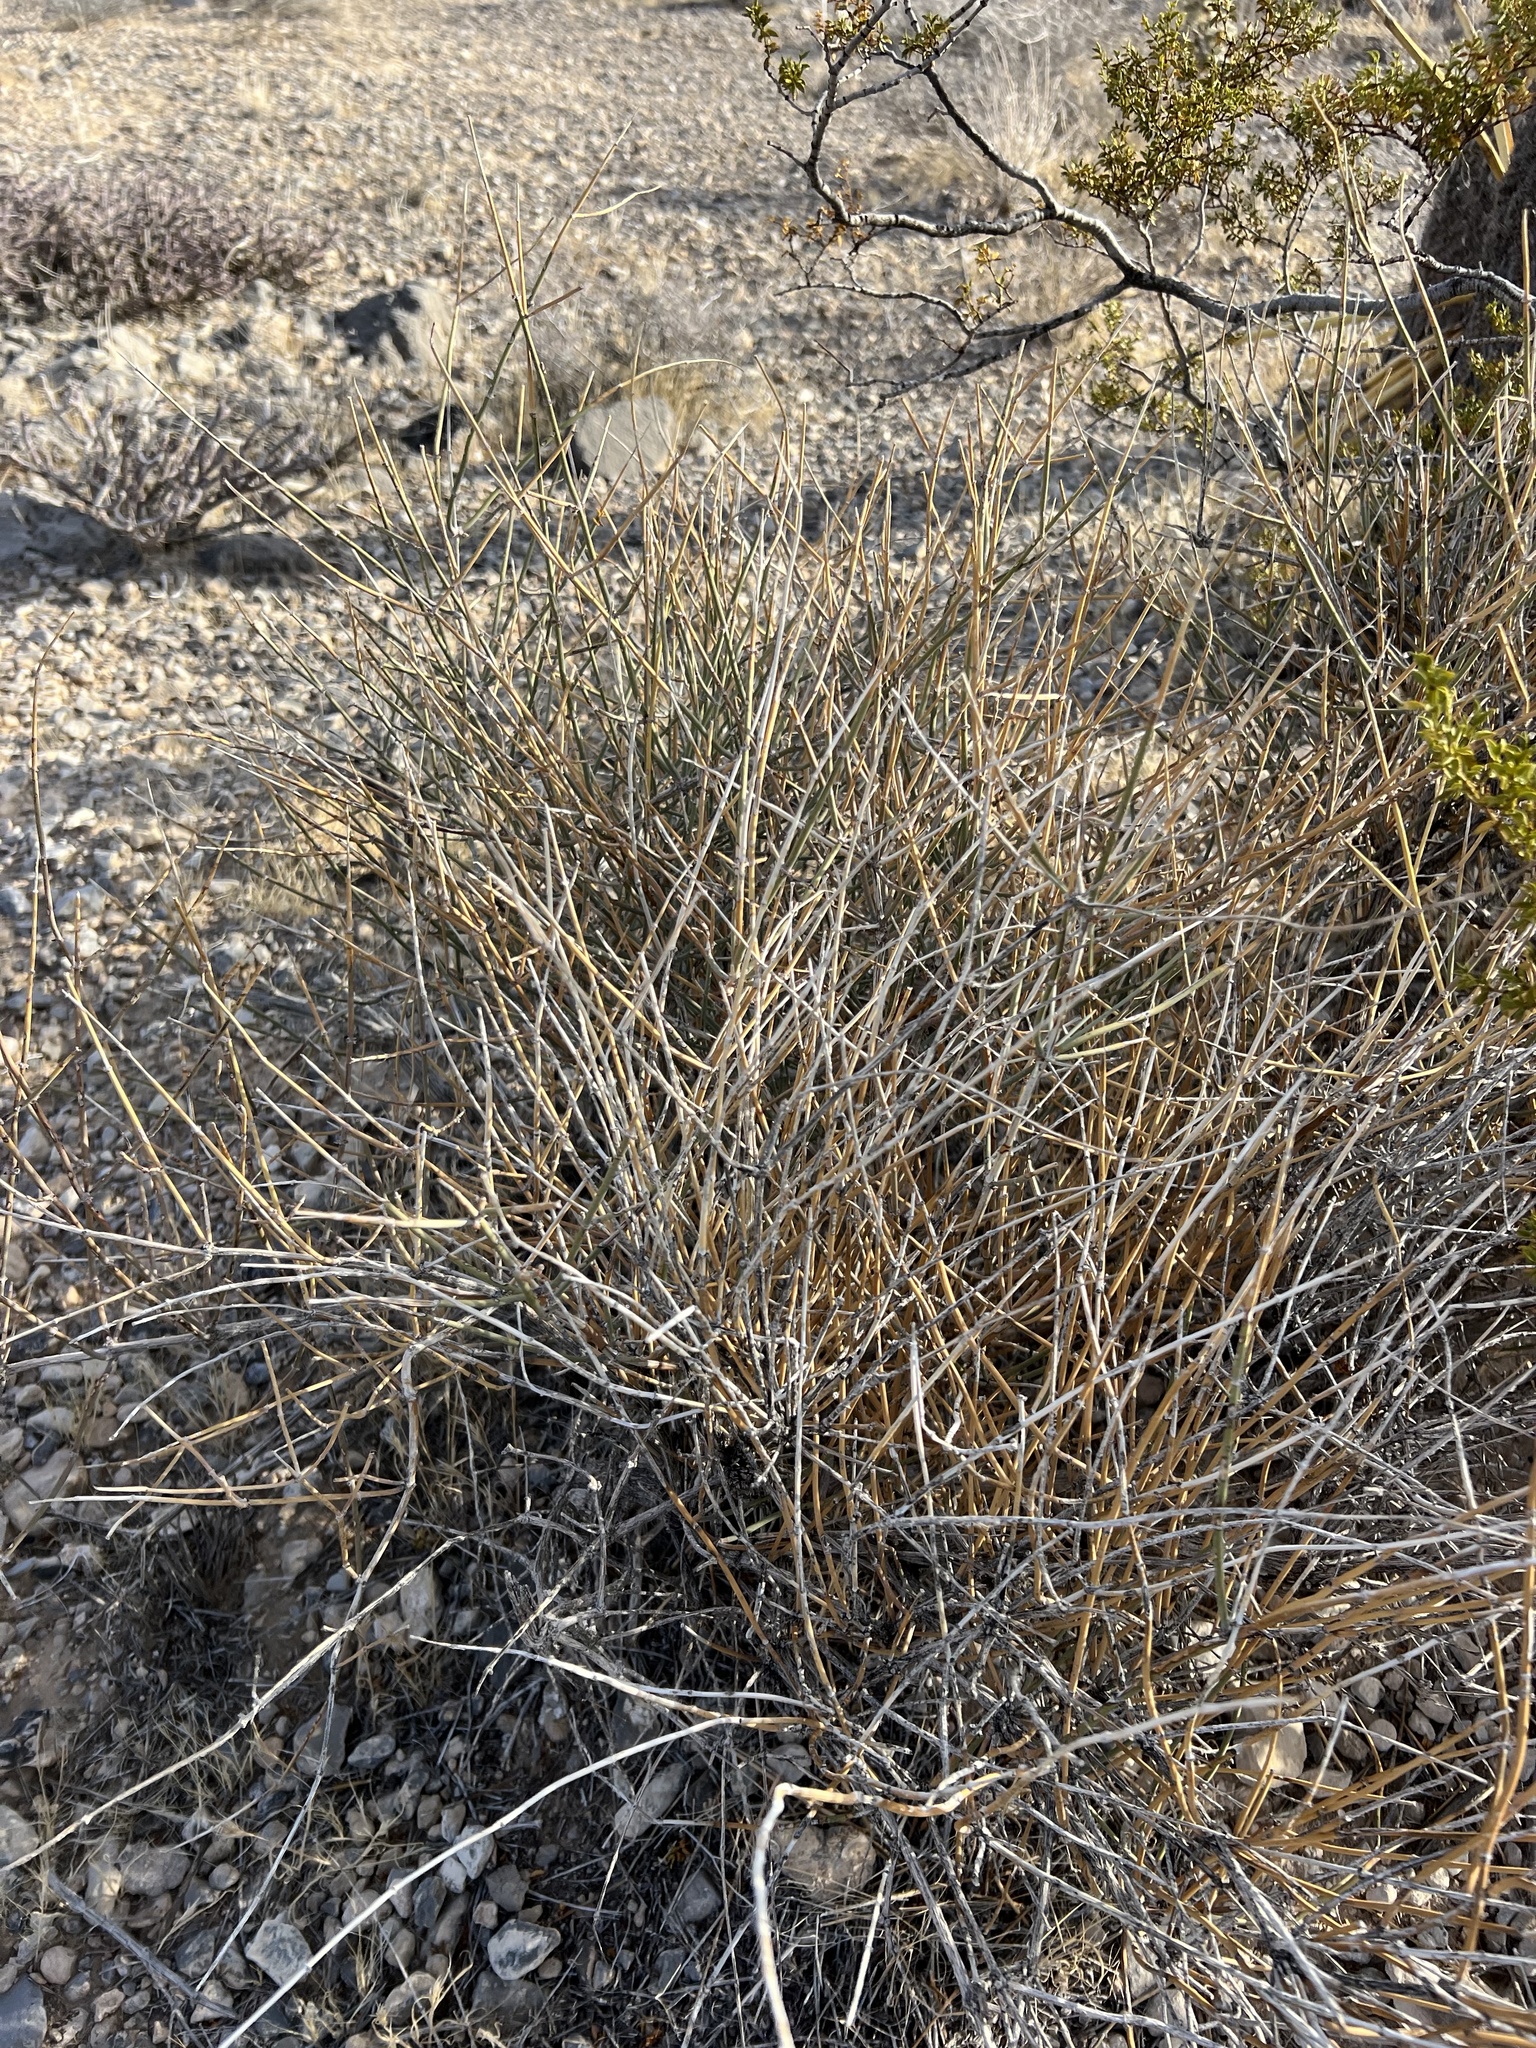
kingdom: Plantae
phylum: Tracheophyta
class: Gnetopsida
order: Ephedrales
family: Ephedraceae
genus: Ephedra
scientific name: Ephedra nevadensis
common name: Gray ephedra
